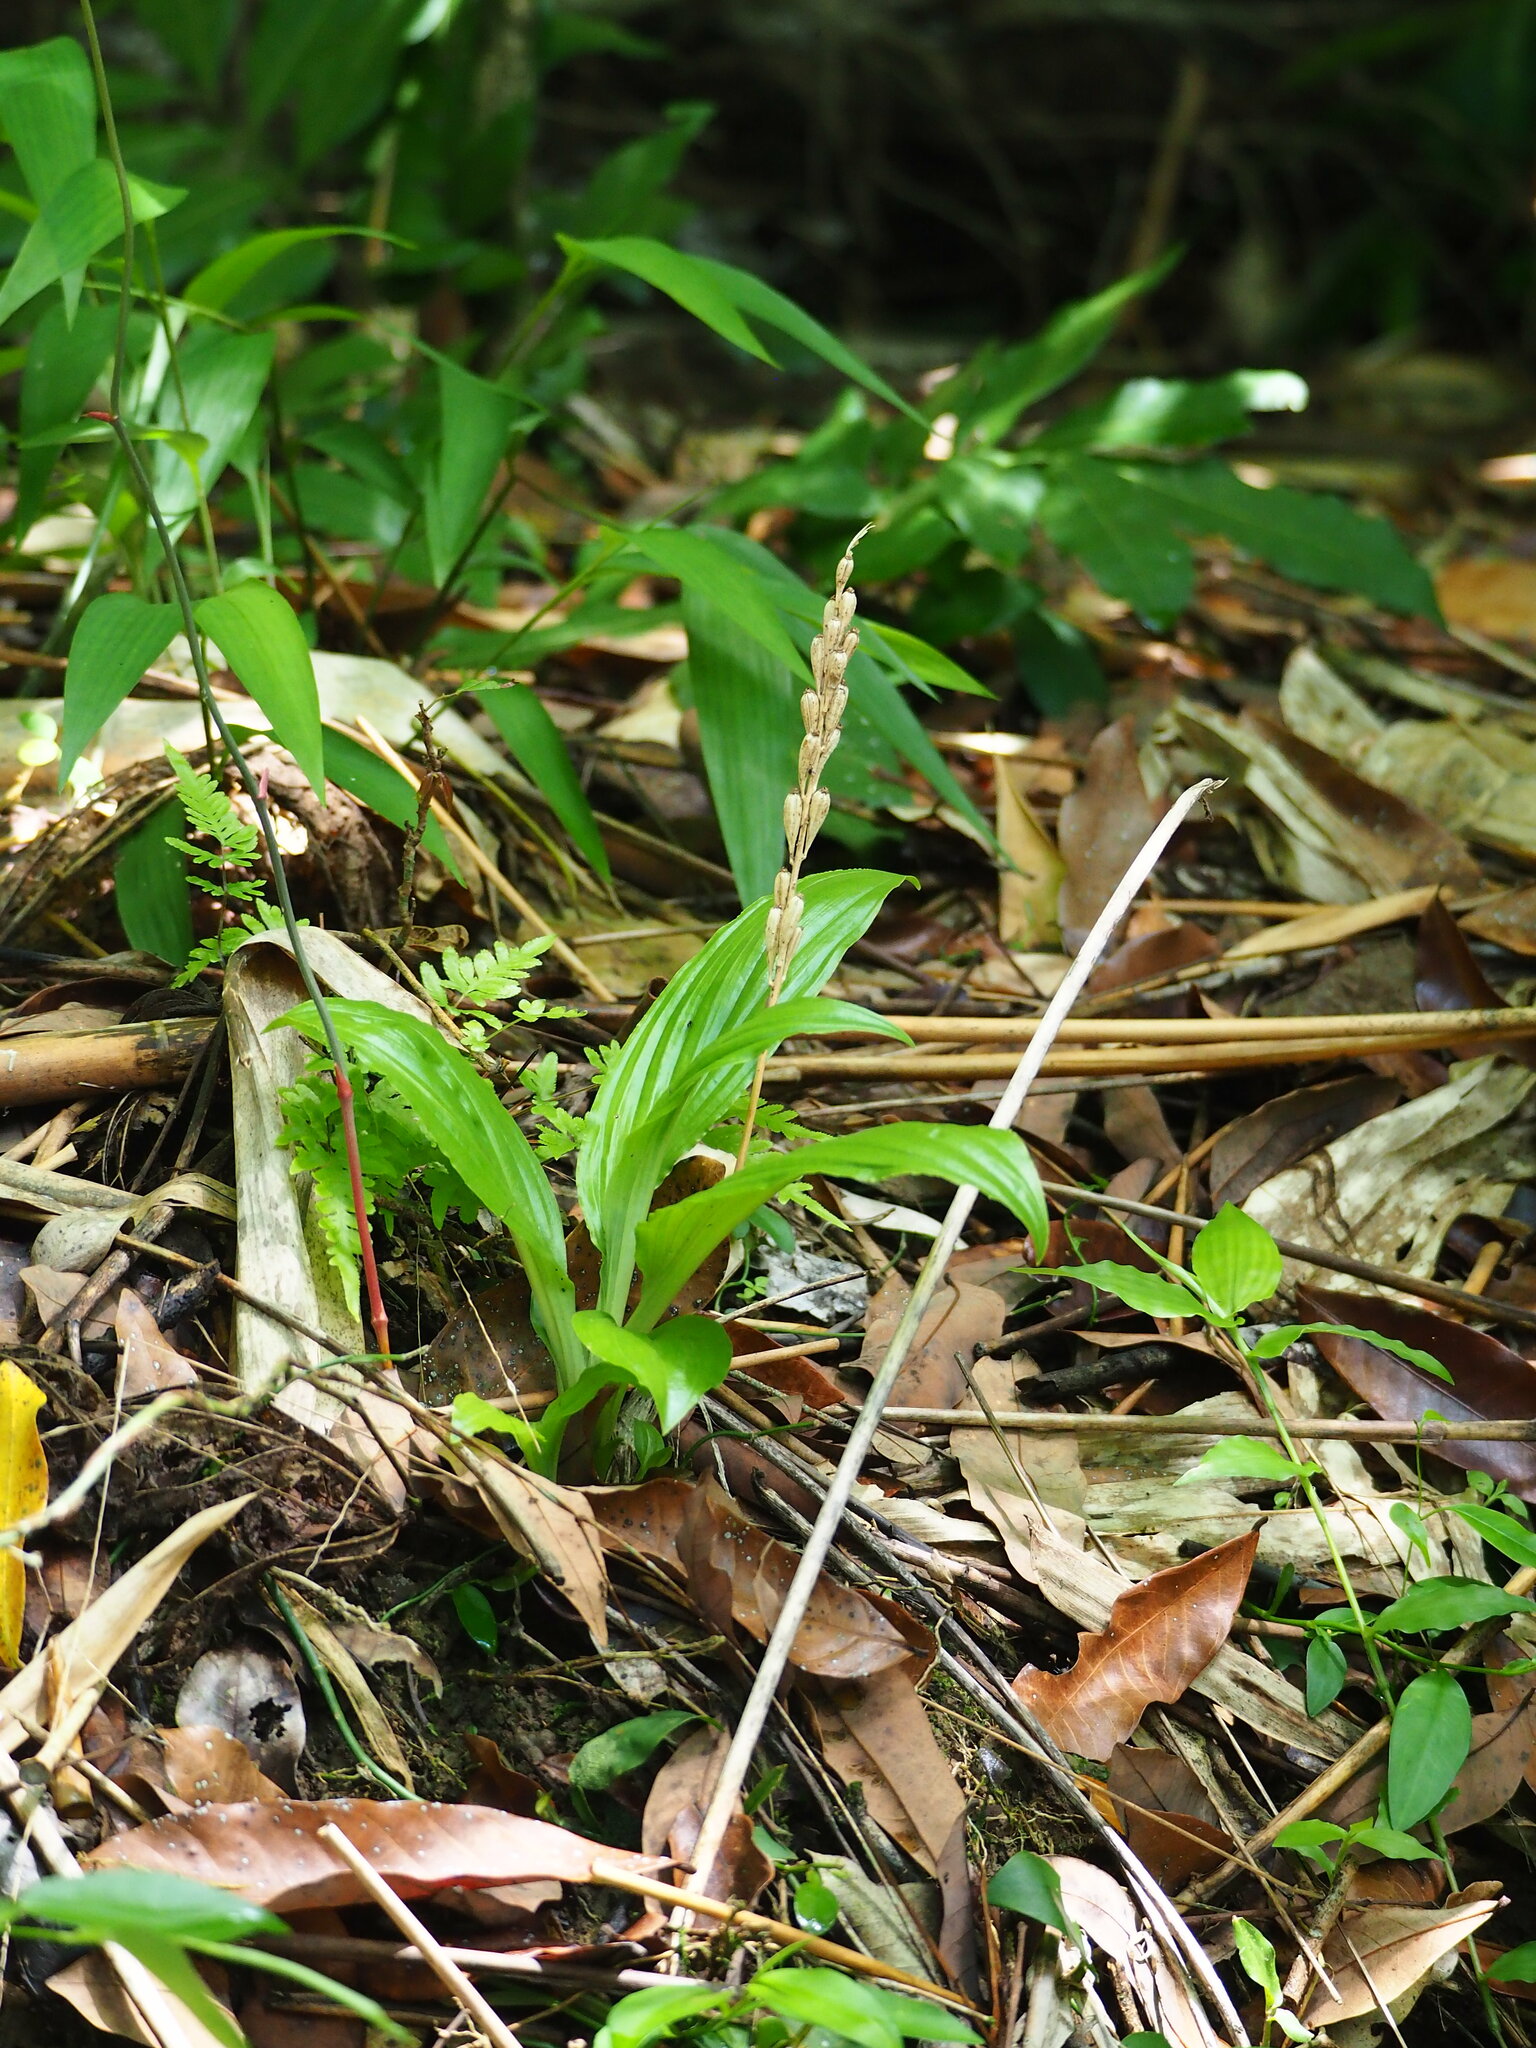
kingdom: Plantae
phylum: Tracheophyta
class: Liliopsida
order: Asparagales
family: Orchidaceae
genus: Dienia
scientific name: Dienia ophrydis
